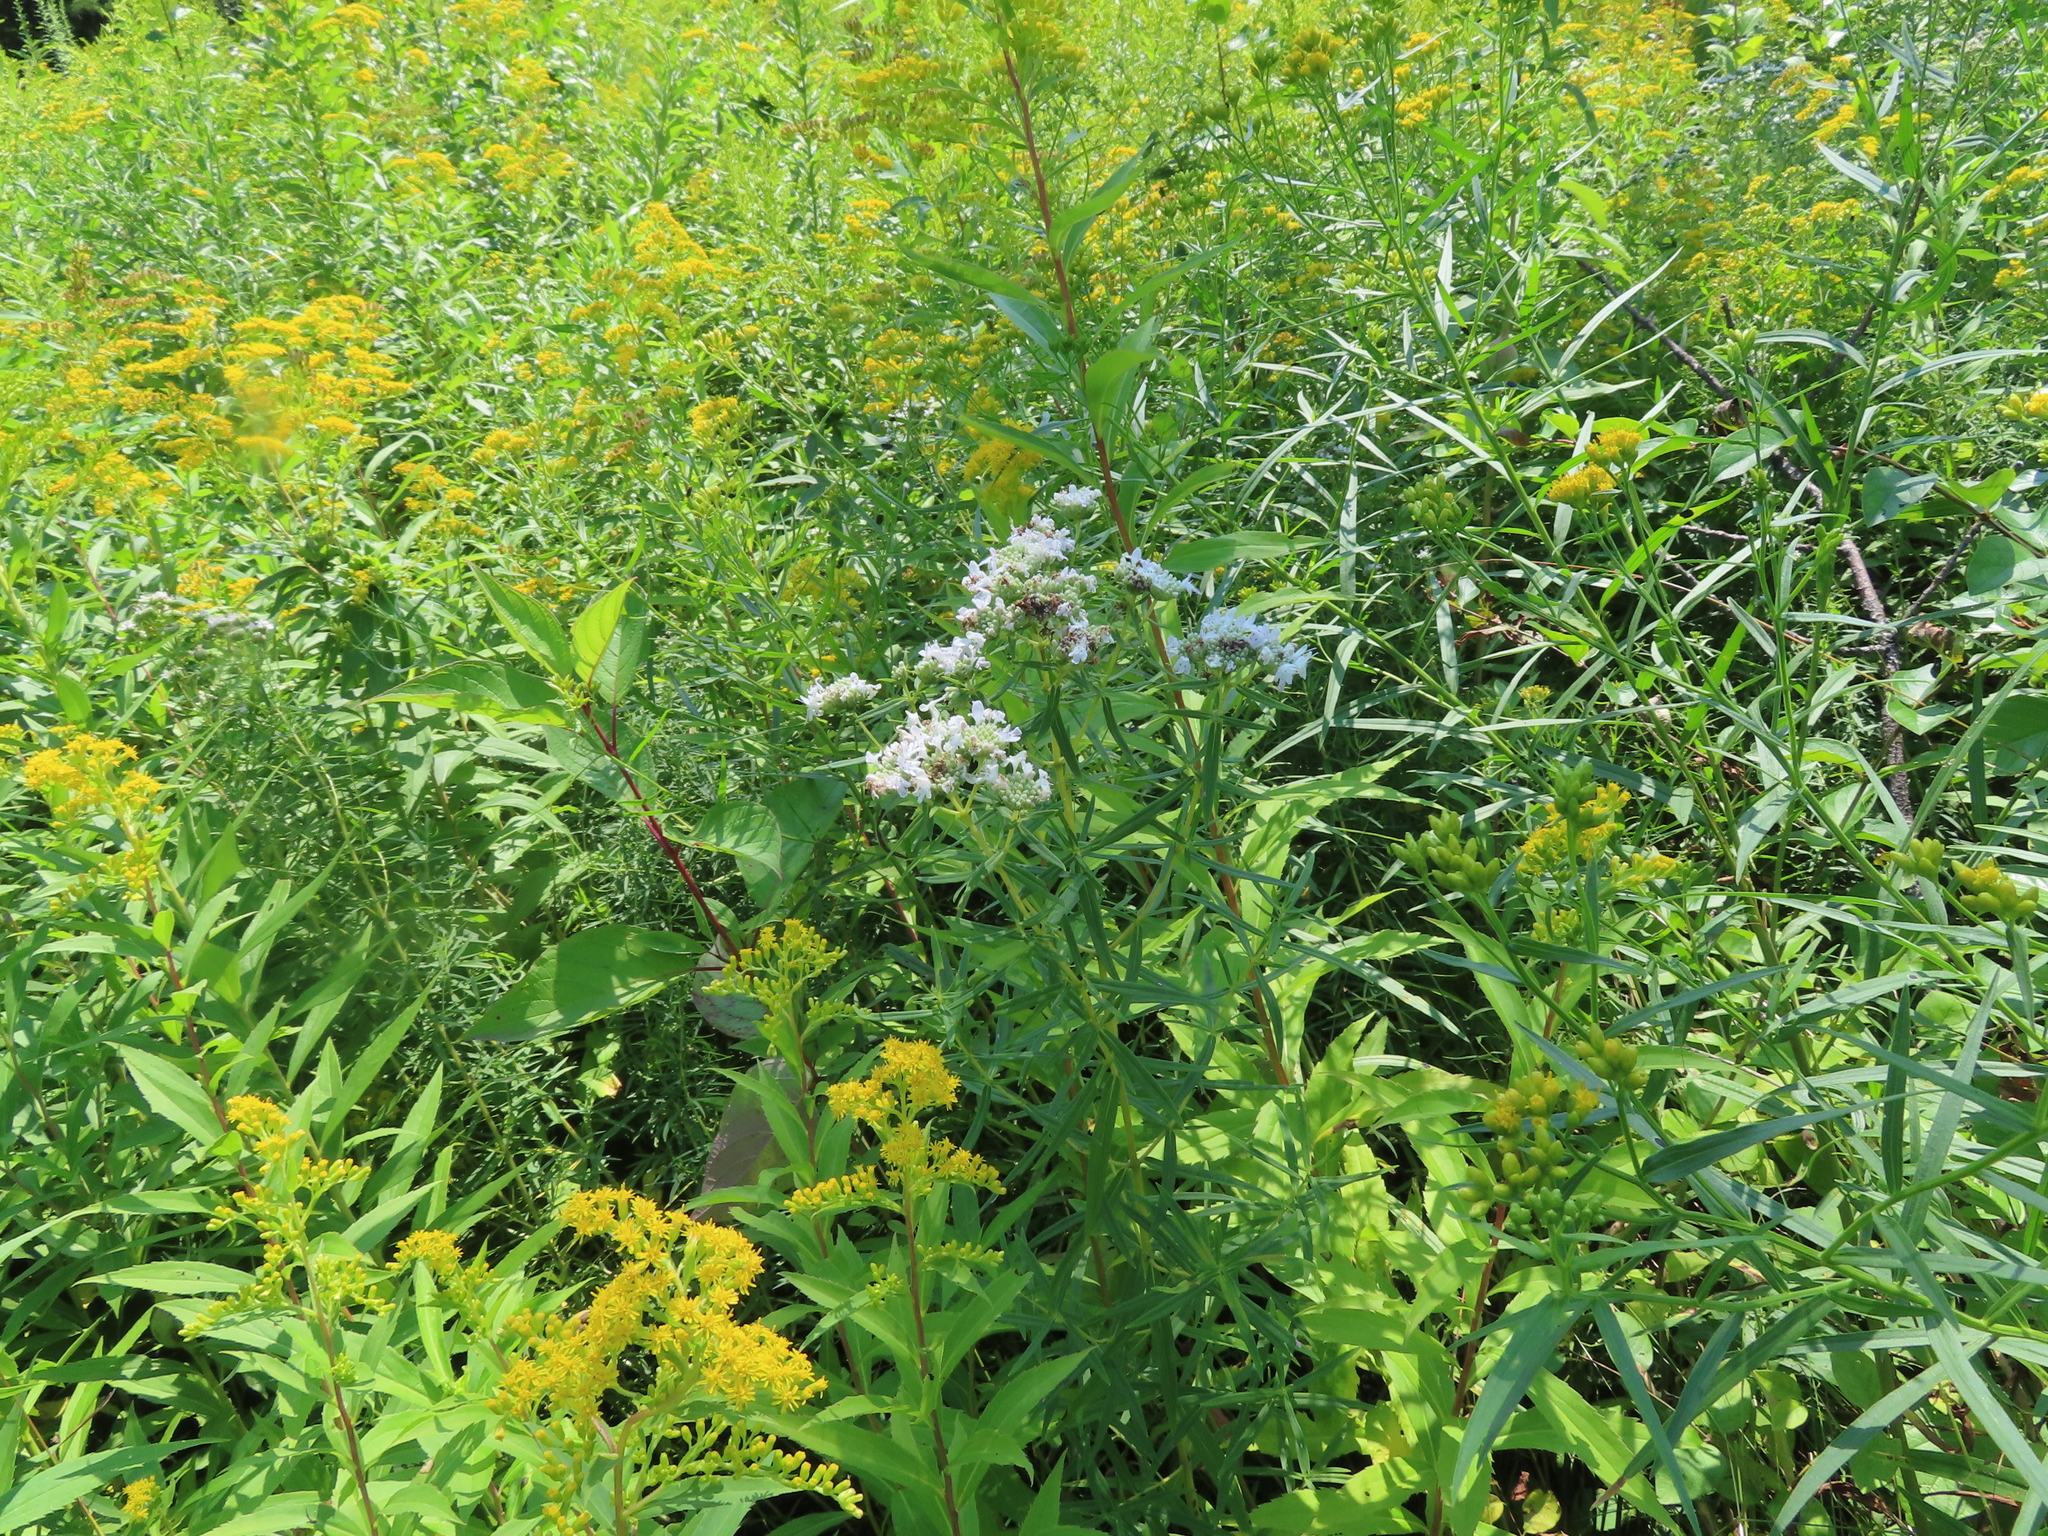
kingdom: Plantae
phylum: Tracheophyta
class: Magnoliopsida
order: Lamiales
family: Lamiaceae
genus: Pycnanthemum
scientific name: Pycnanthemum virginianum
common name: Virginia mountain-mint
